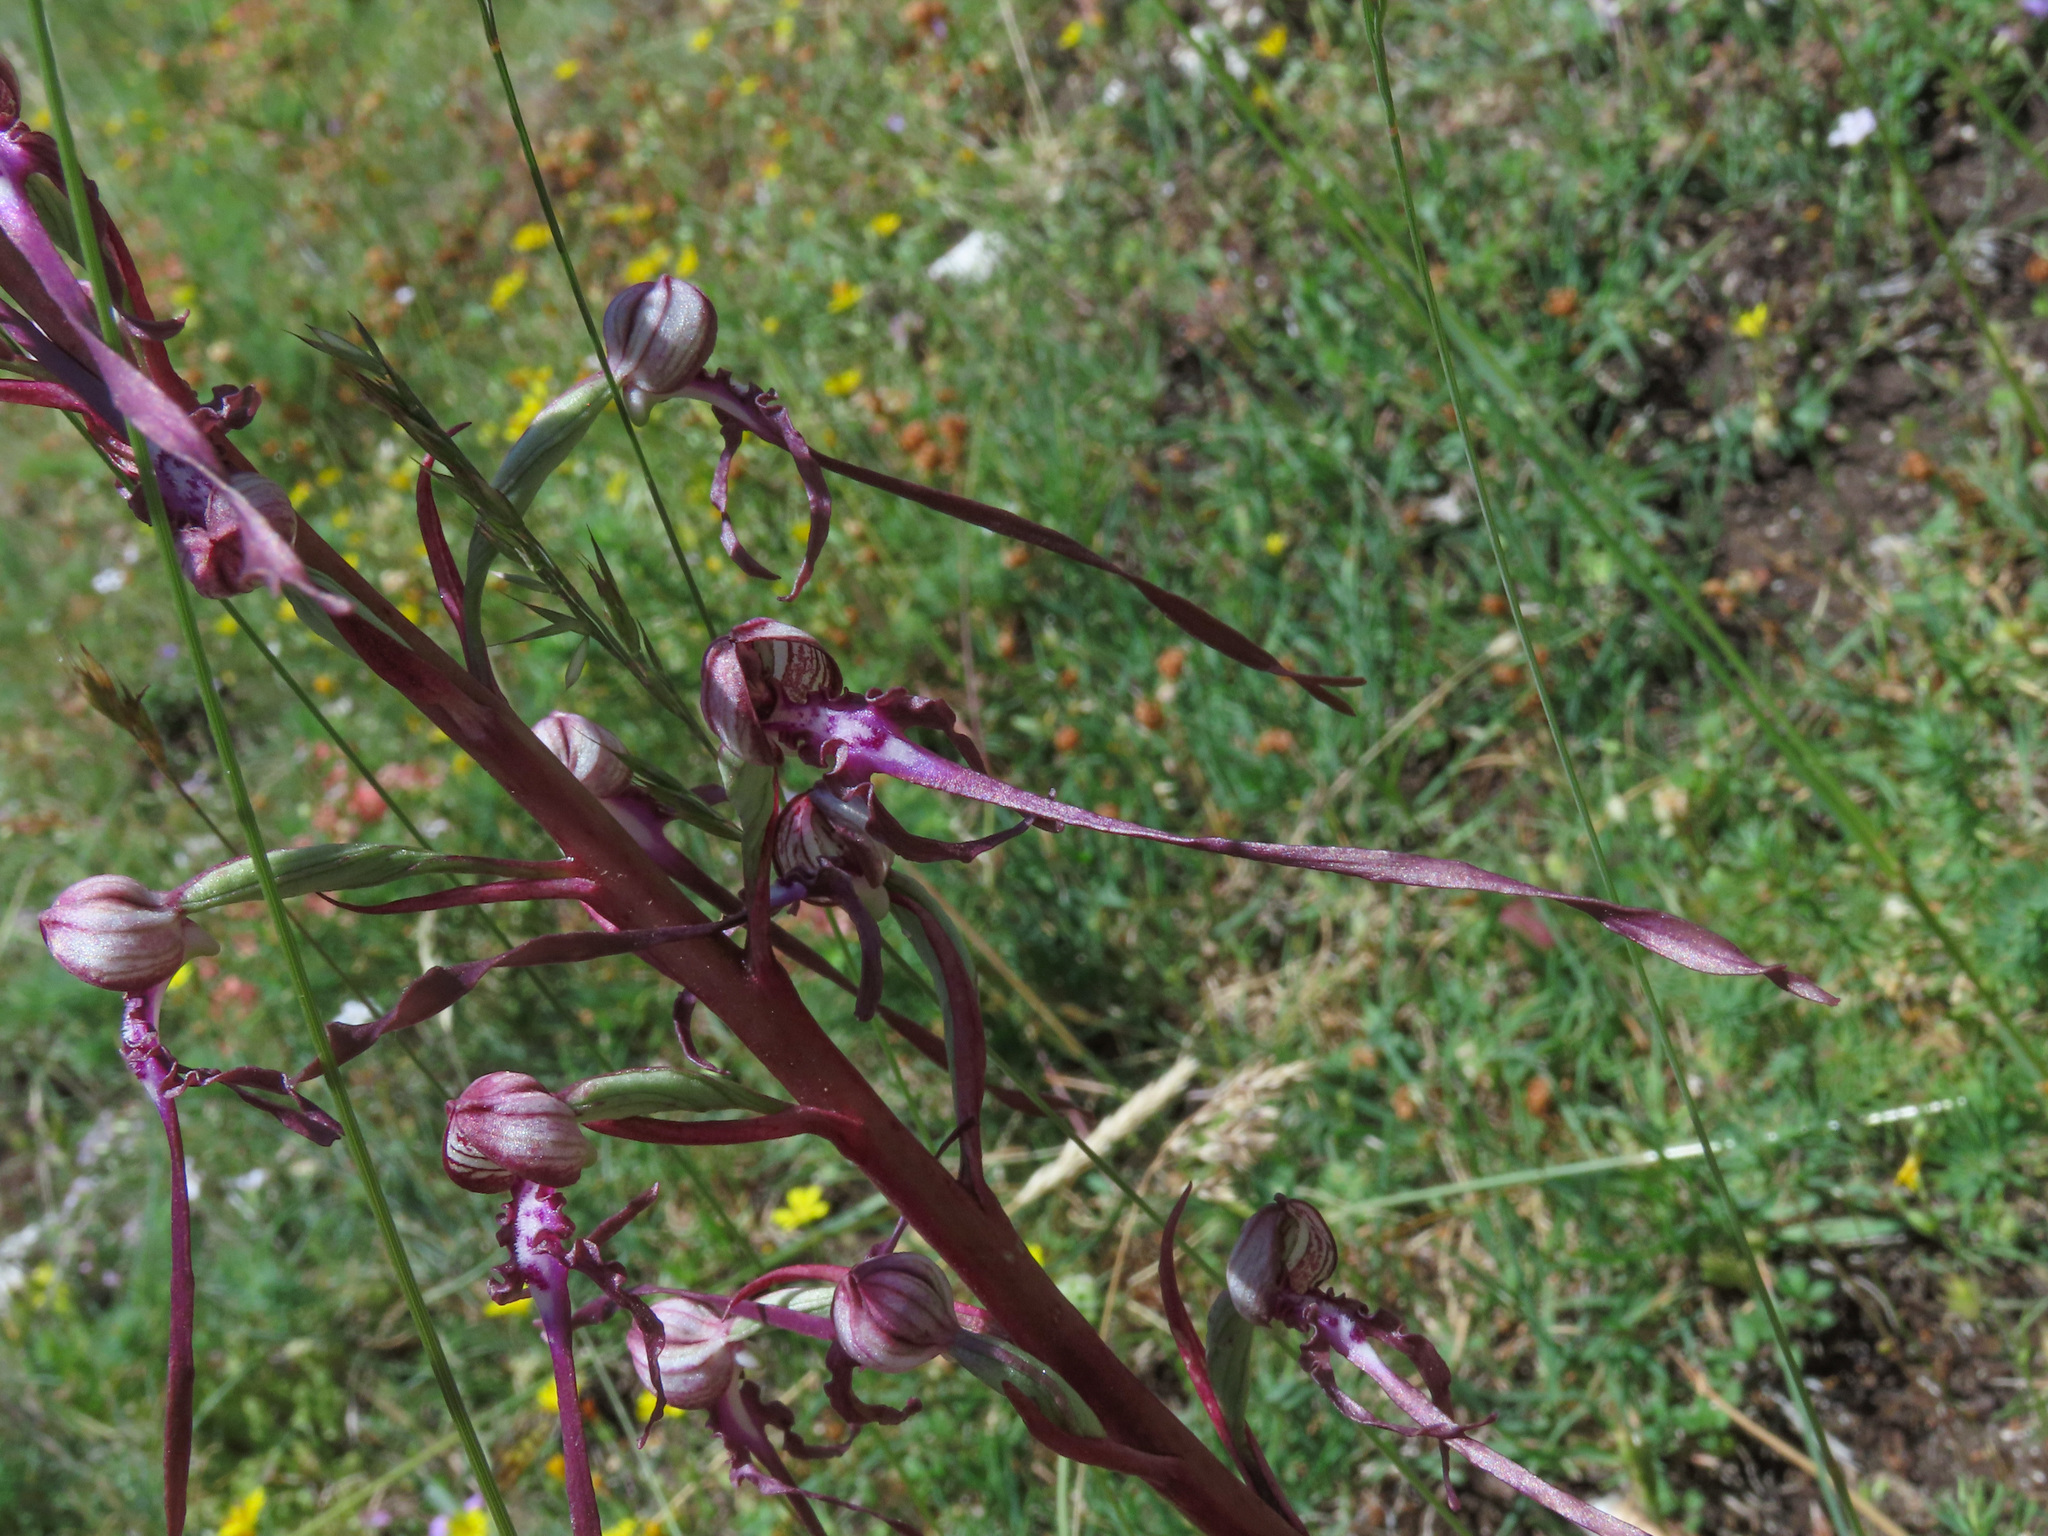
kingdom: Plantae
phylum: Tracheophyta
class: Liliopsida
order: Asparagales
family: Orchidaceae
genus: Himantoglossum
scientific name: Himantoglossum adriaticum
